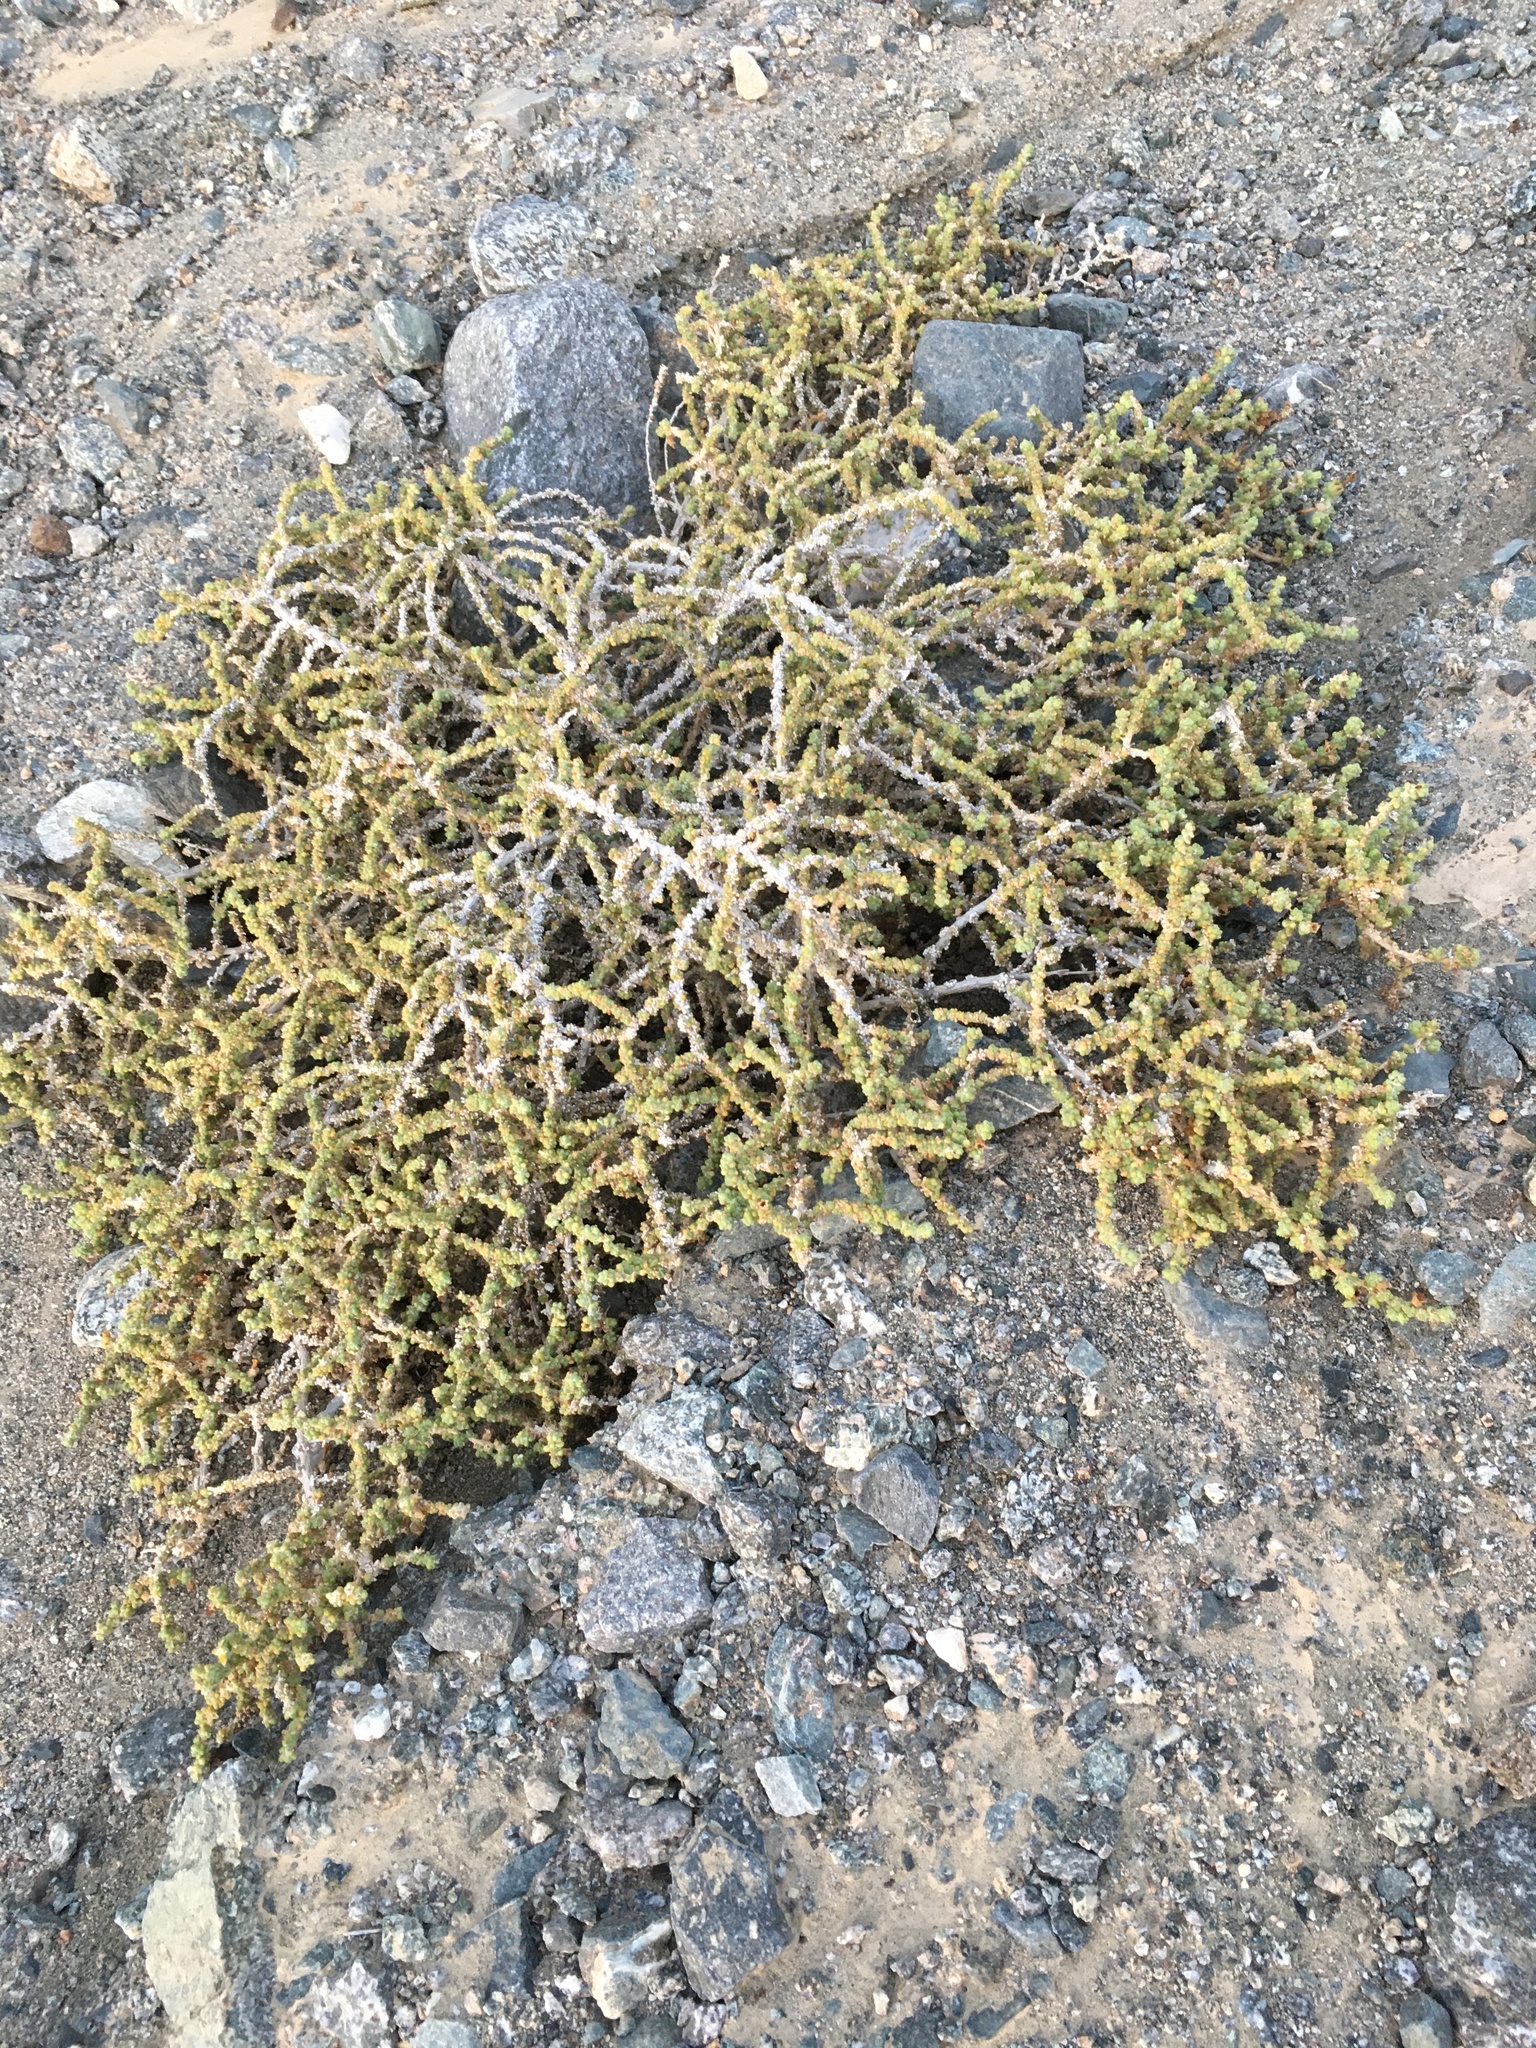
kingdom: Plantae
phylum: Tracheophyta
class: Magnoliopsida
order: Solanales
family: Solanaceae
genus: Nolana
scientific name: Nolana sedifolia
